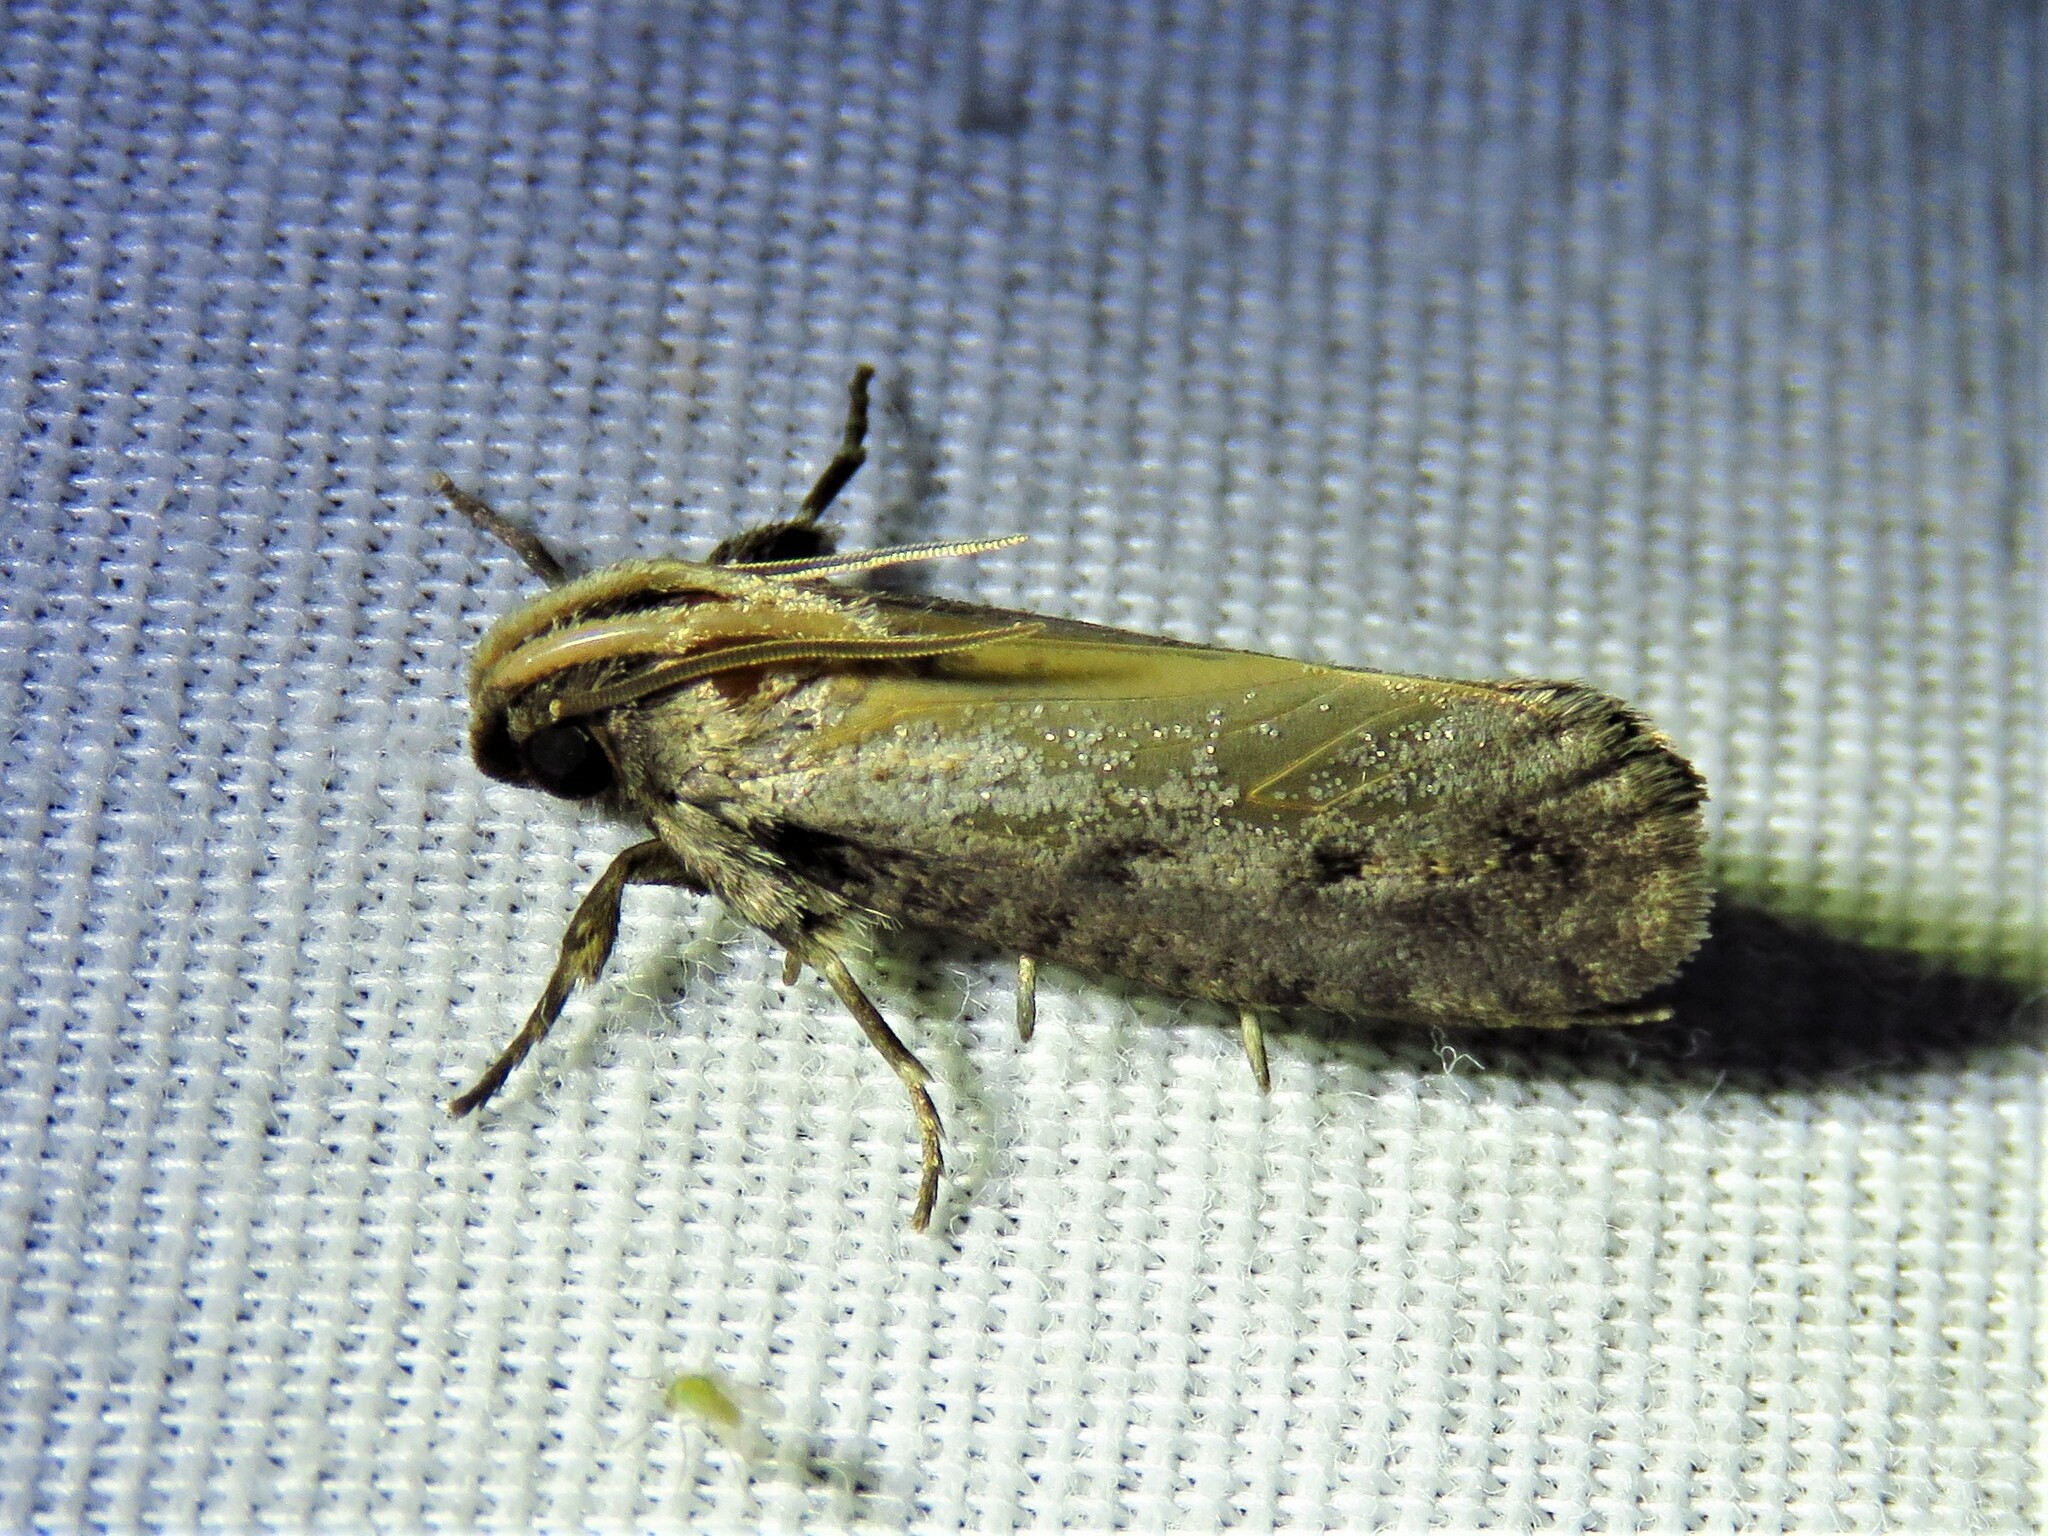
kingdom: Animalia
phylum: Arthropoda
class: Insecta
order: Lepidoptera
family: Tineidae
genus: Acrolophus
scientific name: Acrolophus popeanella
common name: Clemens' grass tubeworm moth
